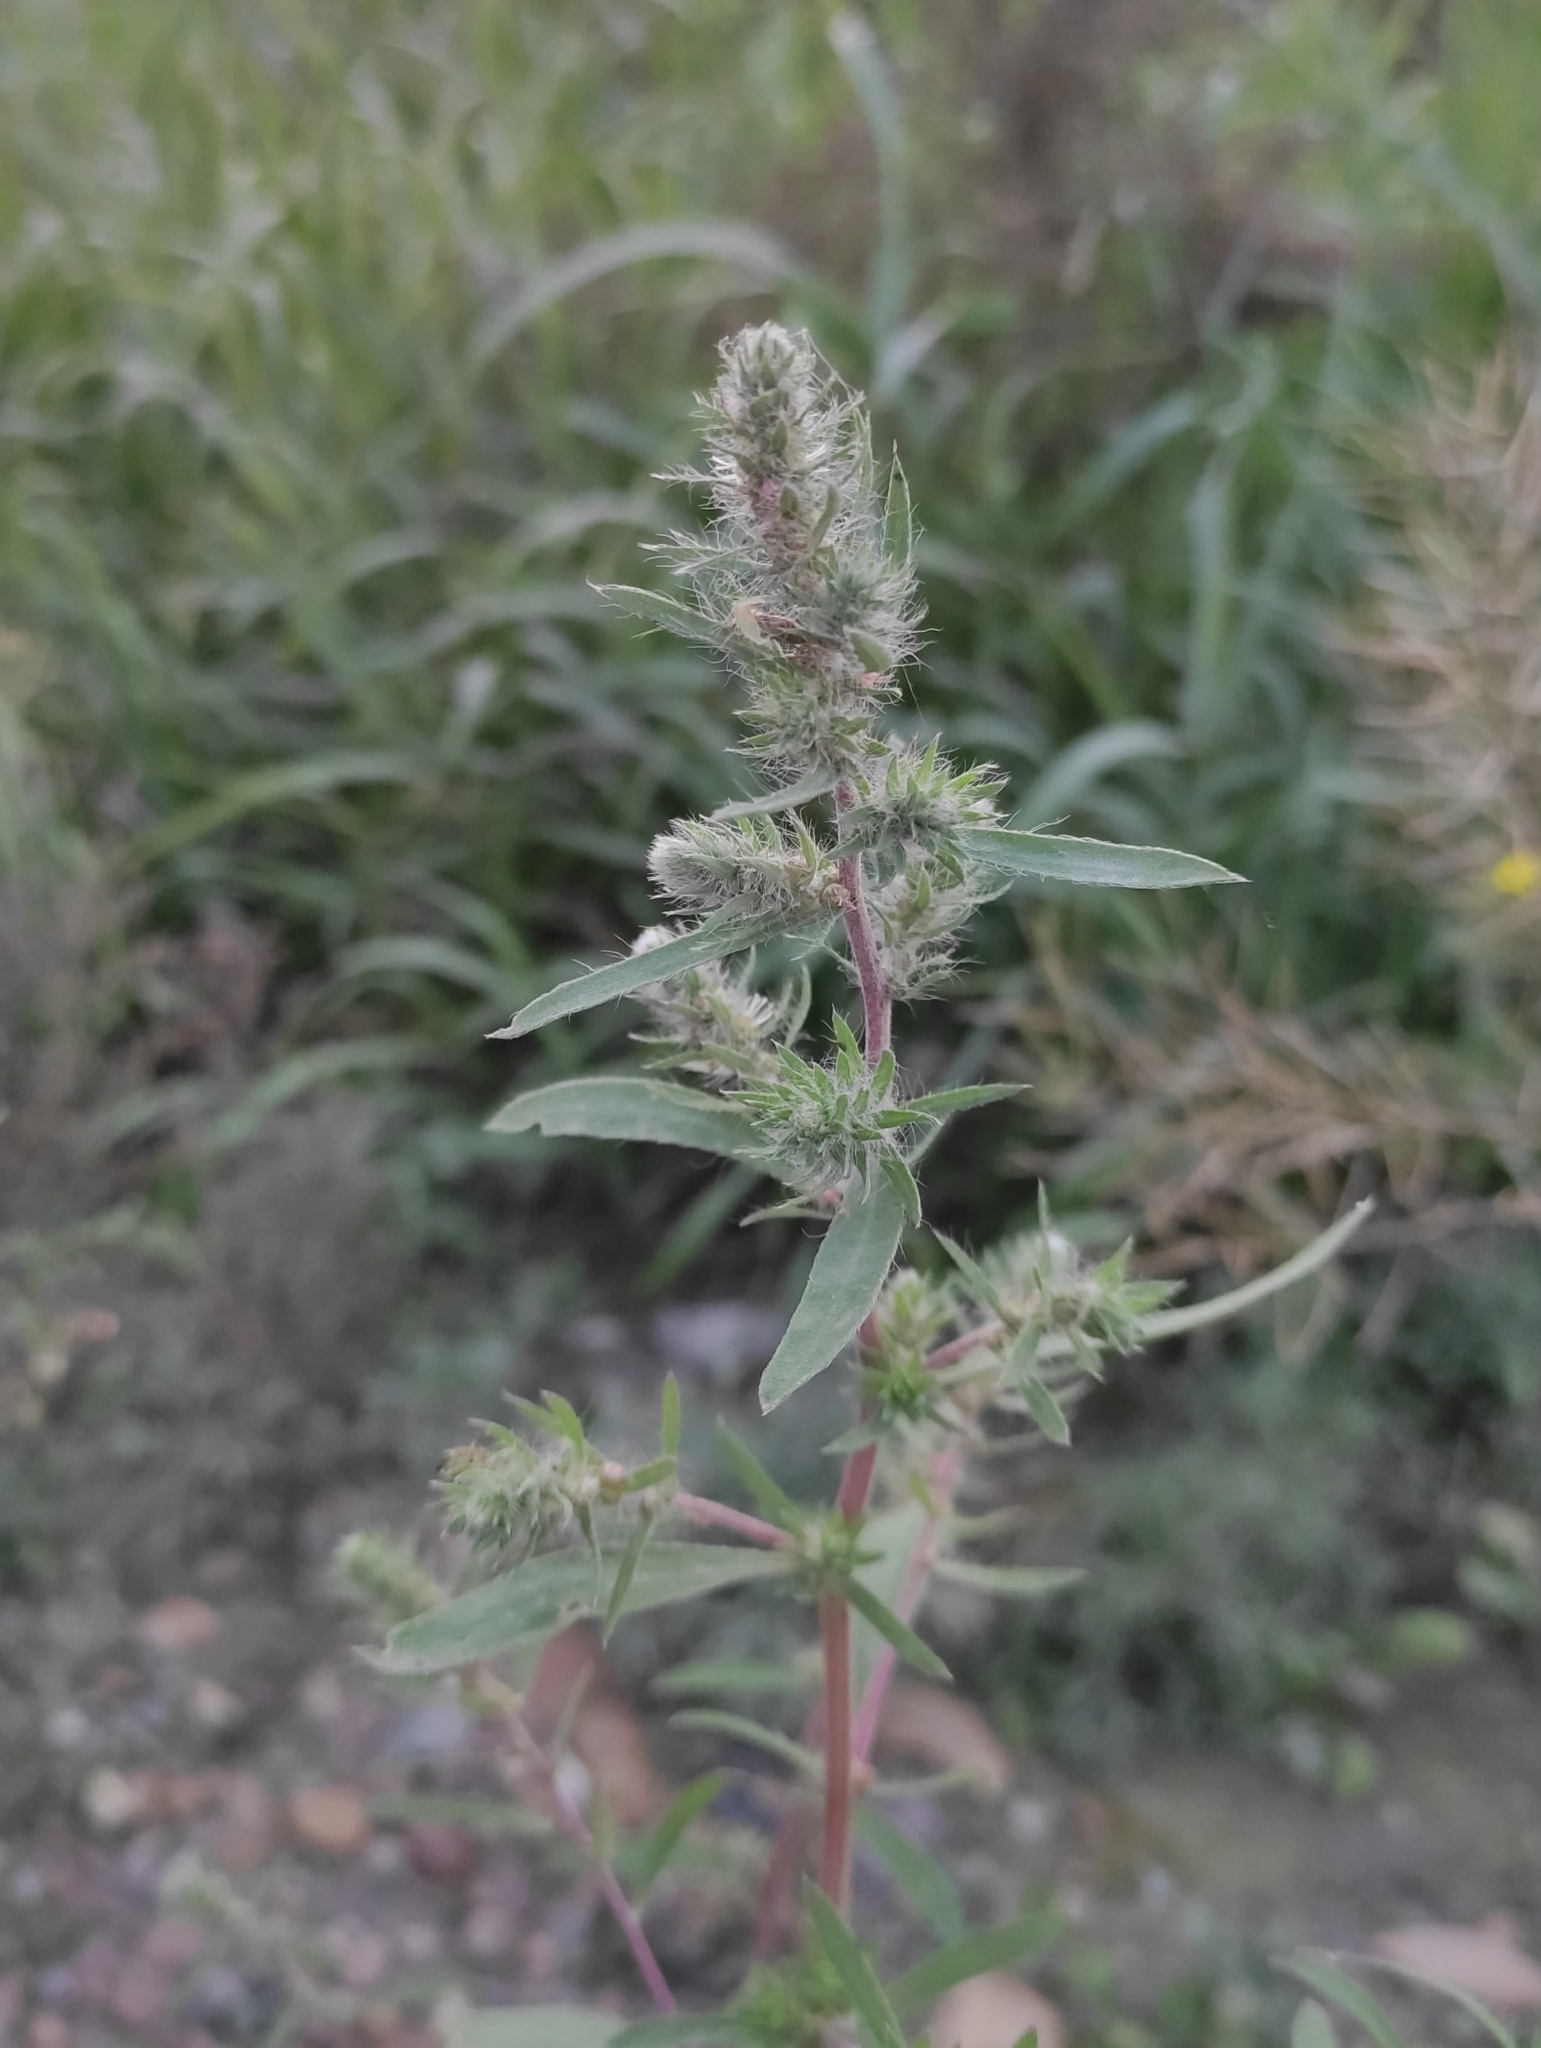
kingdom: Plantae
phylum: Tracheophyta
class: Magnoliopsida
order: Caryophyllales
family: Amaranthaceae
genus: Bassia
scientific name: Bassia scoparia
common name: Belvedere
